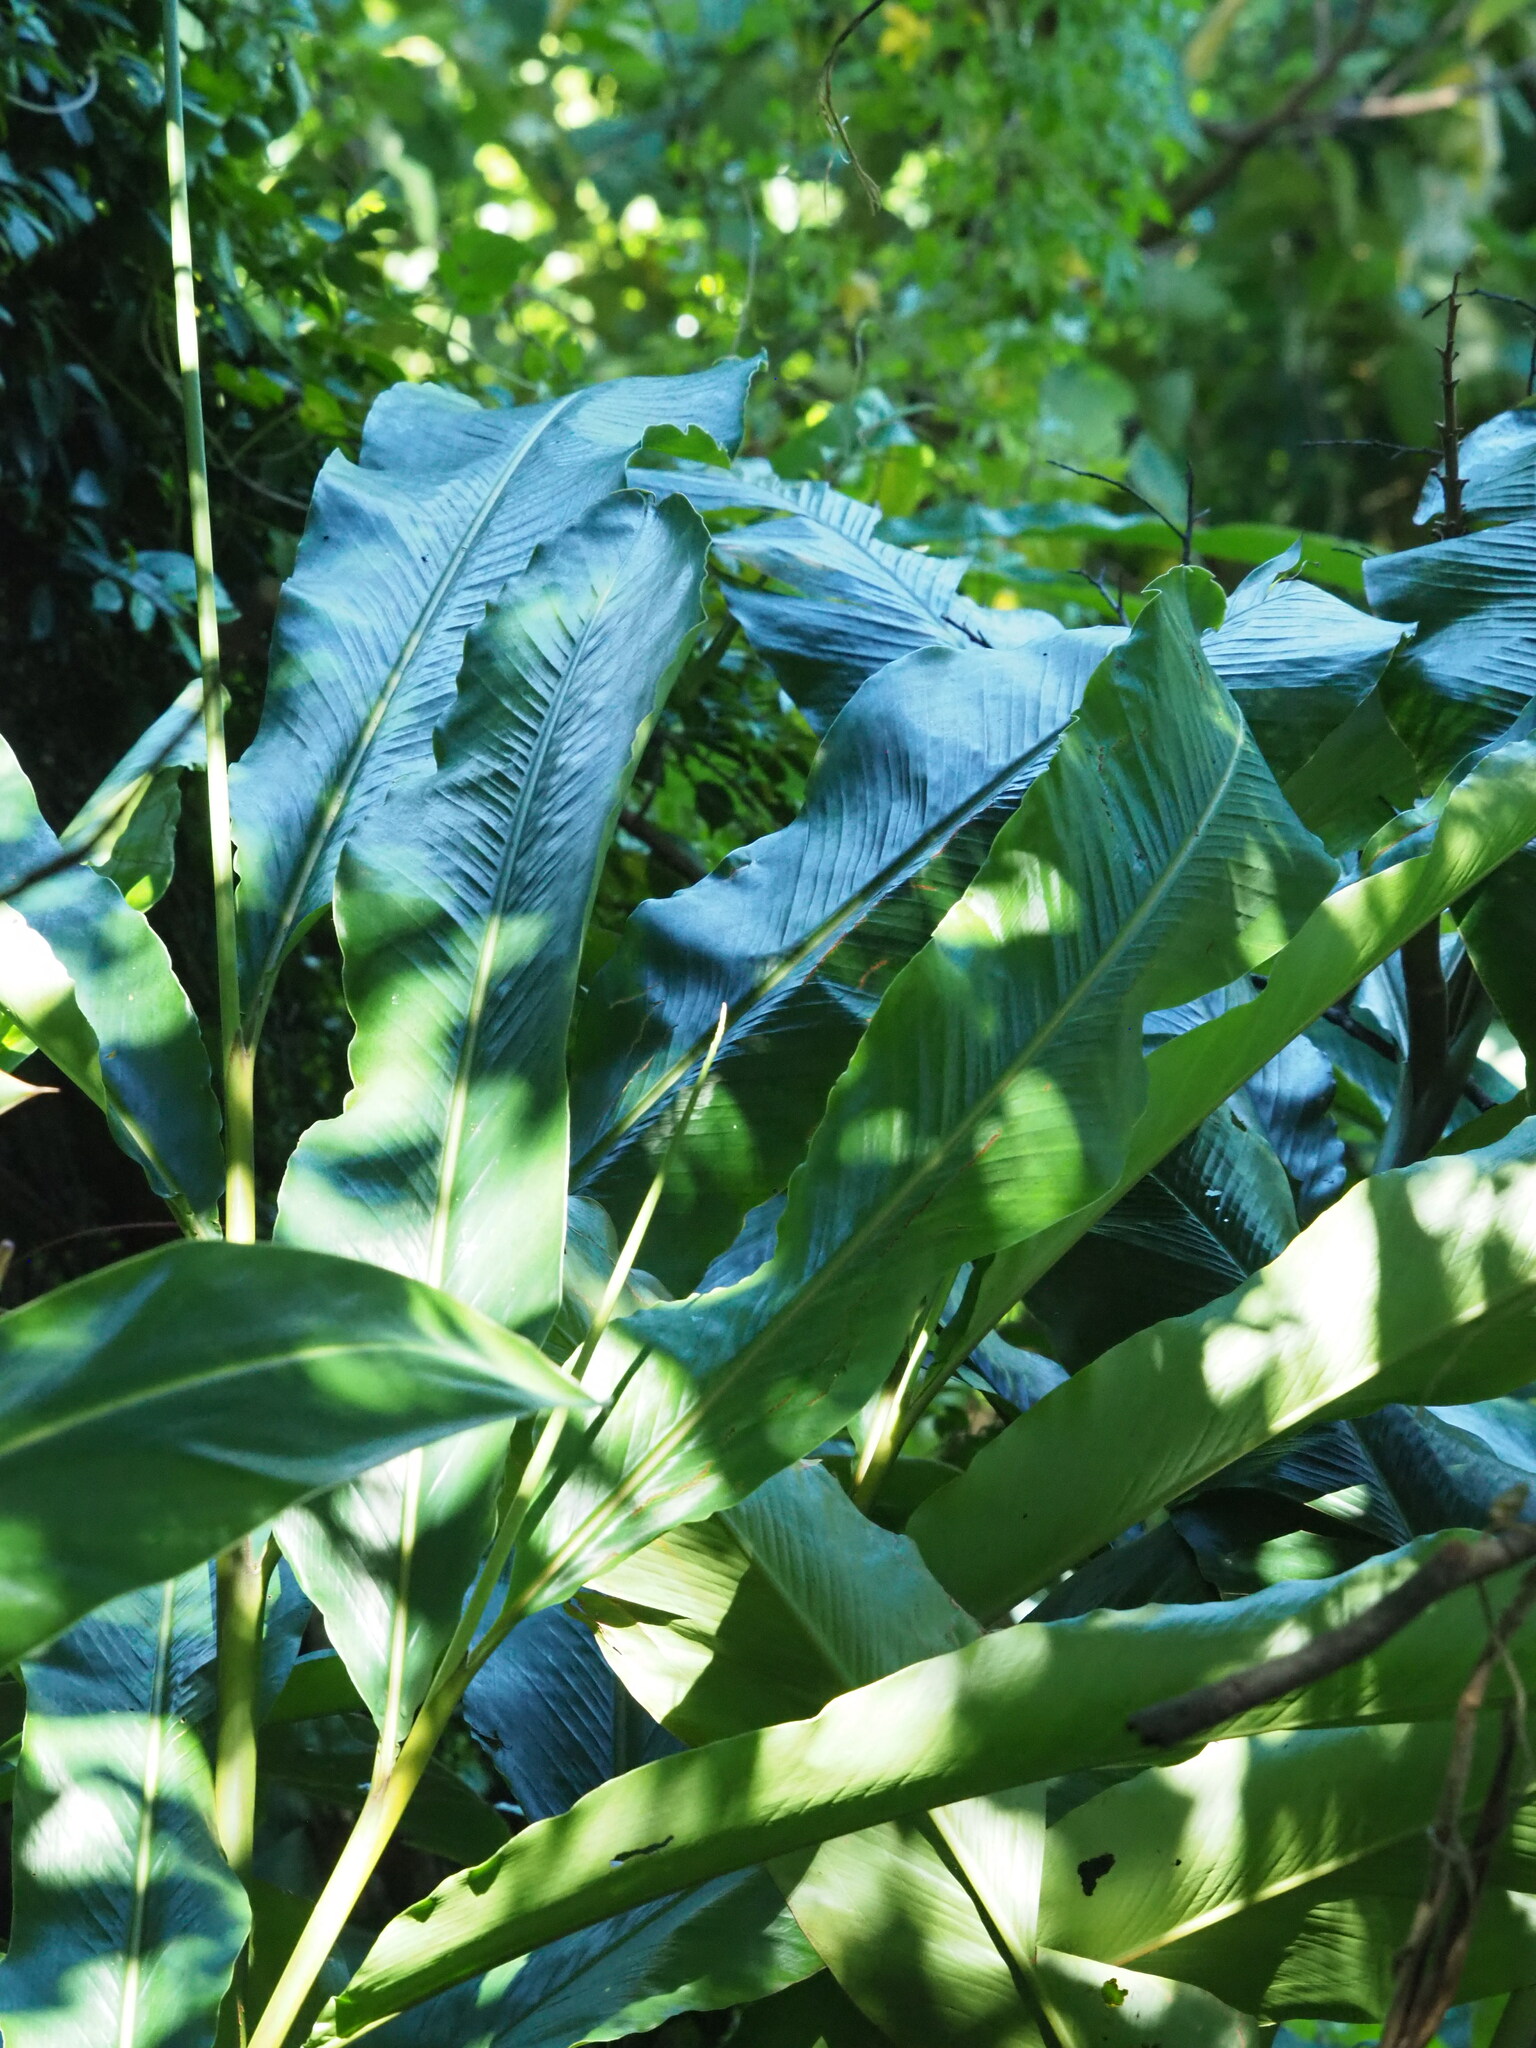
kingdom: Plantae
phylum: Tracheophyta
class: Liliopsida
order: Zingiberales
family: Zingiberaceae
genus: Alpinia
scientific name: Alpinia uraiensis
